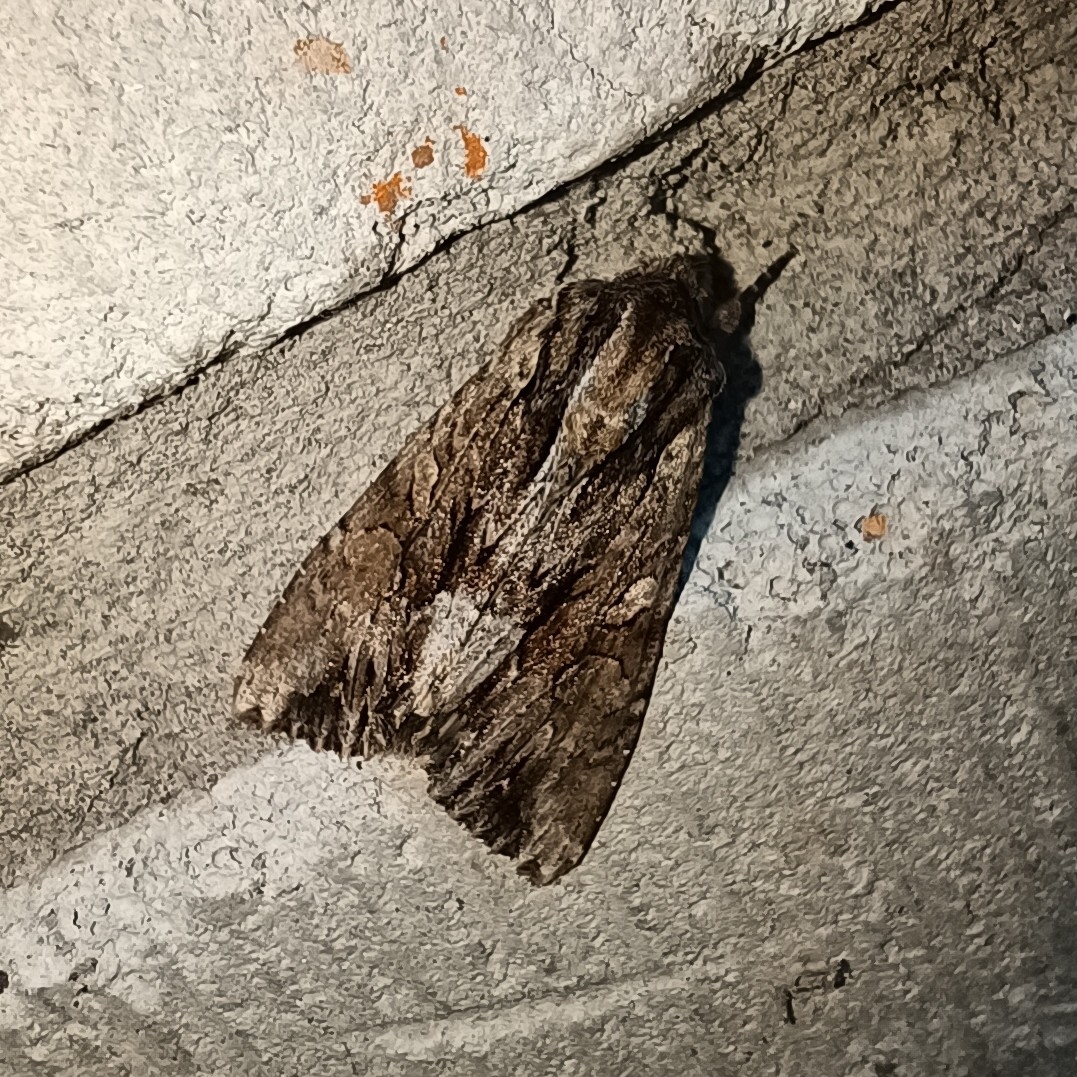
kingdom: Animalia
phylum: Arthropoda
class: Insecta
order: Lepidoptera
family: Noctuidae
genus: Apamea
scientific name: Apamea monoglypha
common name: Dark arches
